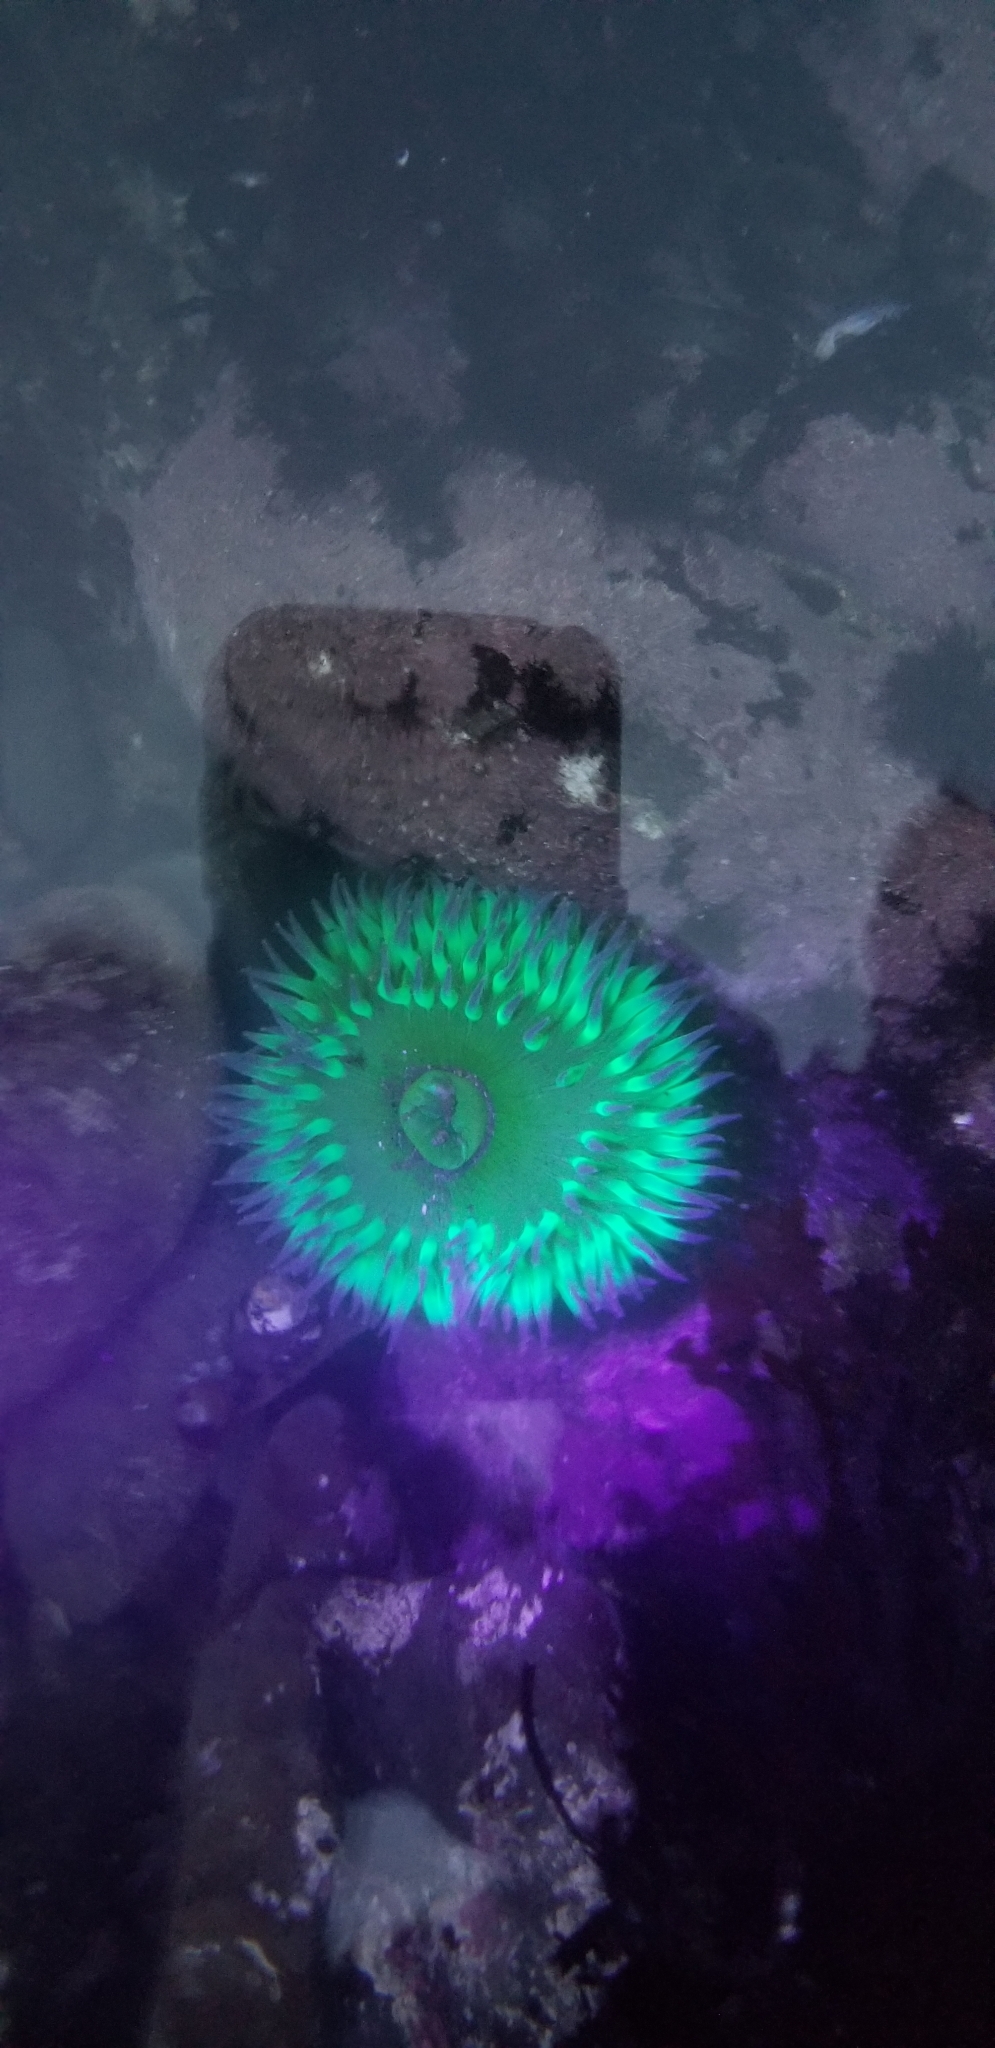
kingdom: Animalia
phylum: Cnidaria
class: Anthozoa
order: Actiniaria
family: Actiniidae
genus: Anthopleura
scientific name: Anthopleura xanthogrammica
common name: Giant green anemone
